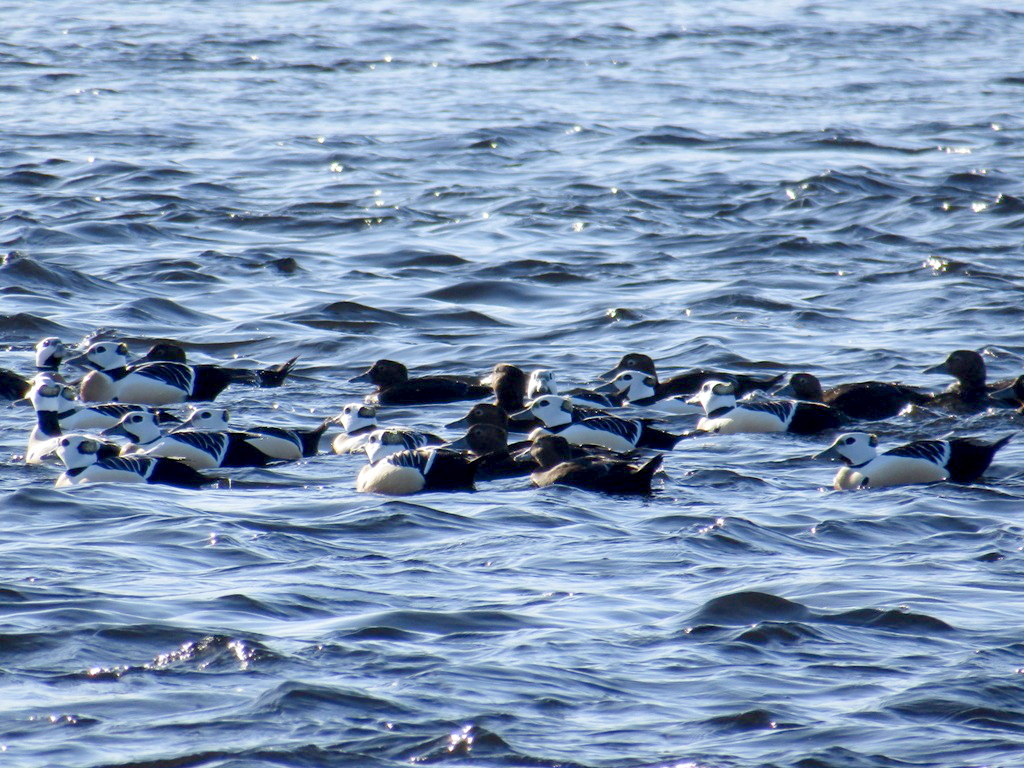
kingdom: Animalia
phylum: Chordata
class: Aves
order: Anseriformes
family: Anatidae
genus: Polysticta
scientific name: Polysticta stelleri
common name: Steller's eider
